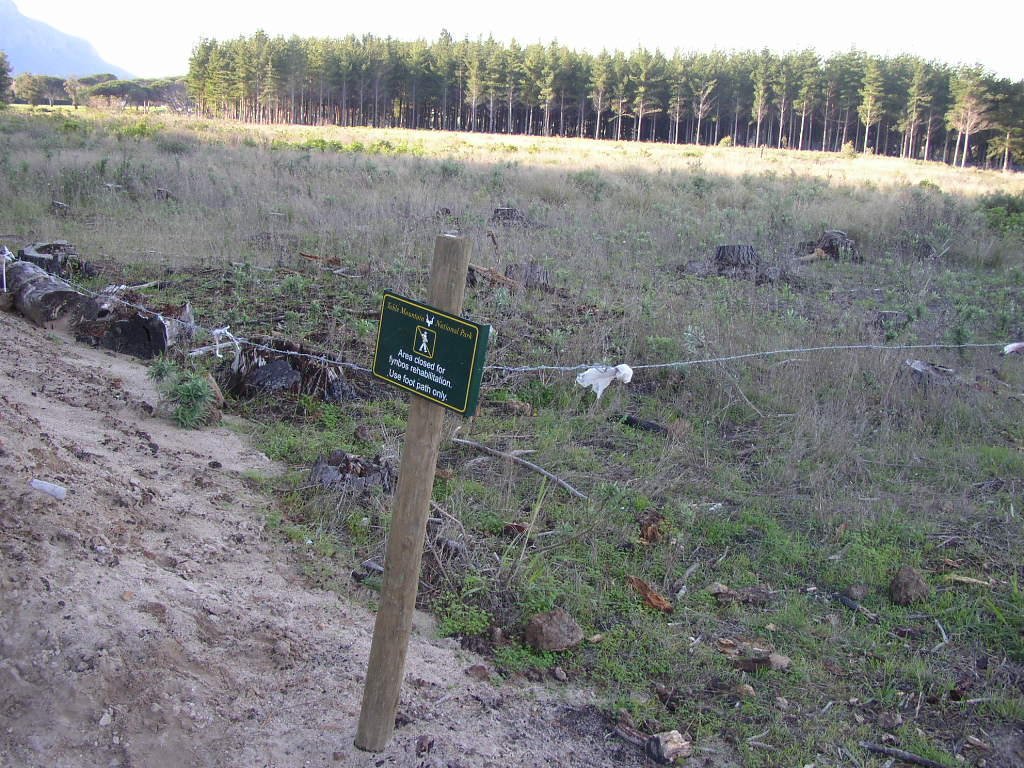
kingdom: Plantae
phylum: Tracheophyta
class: Liliopsida
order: Poales
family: Poaceae
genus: Briza
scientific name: Briza maxima
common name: Big quakinggrass
